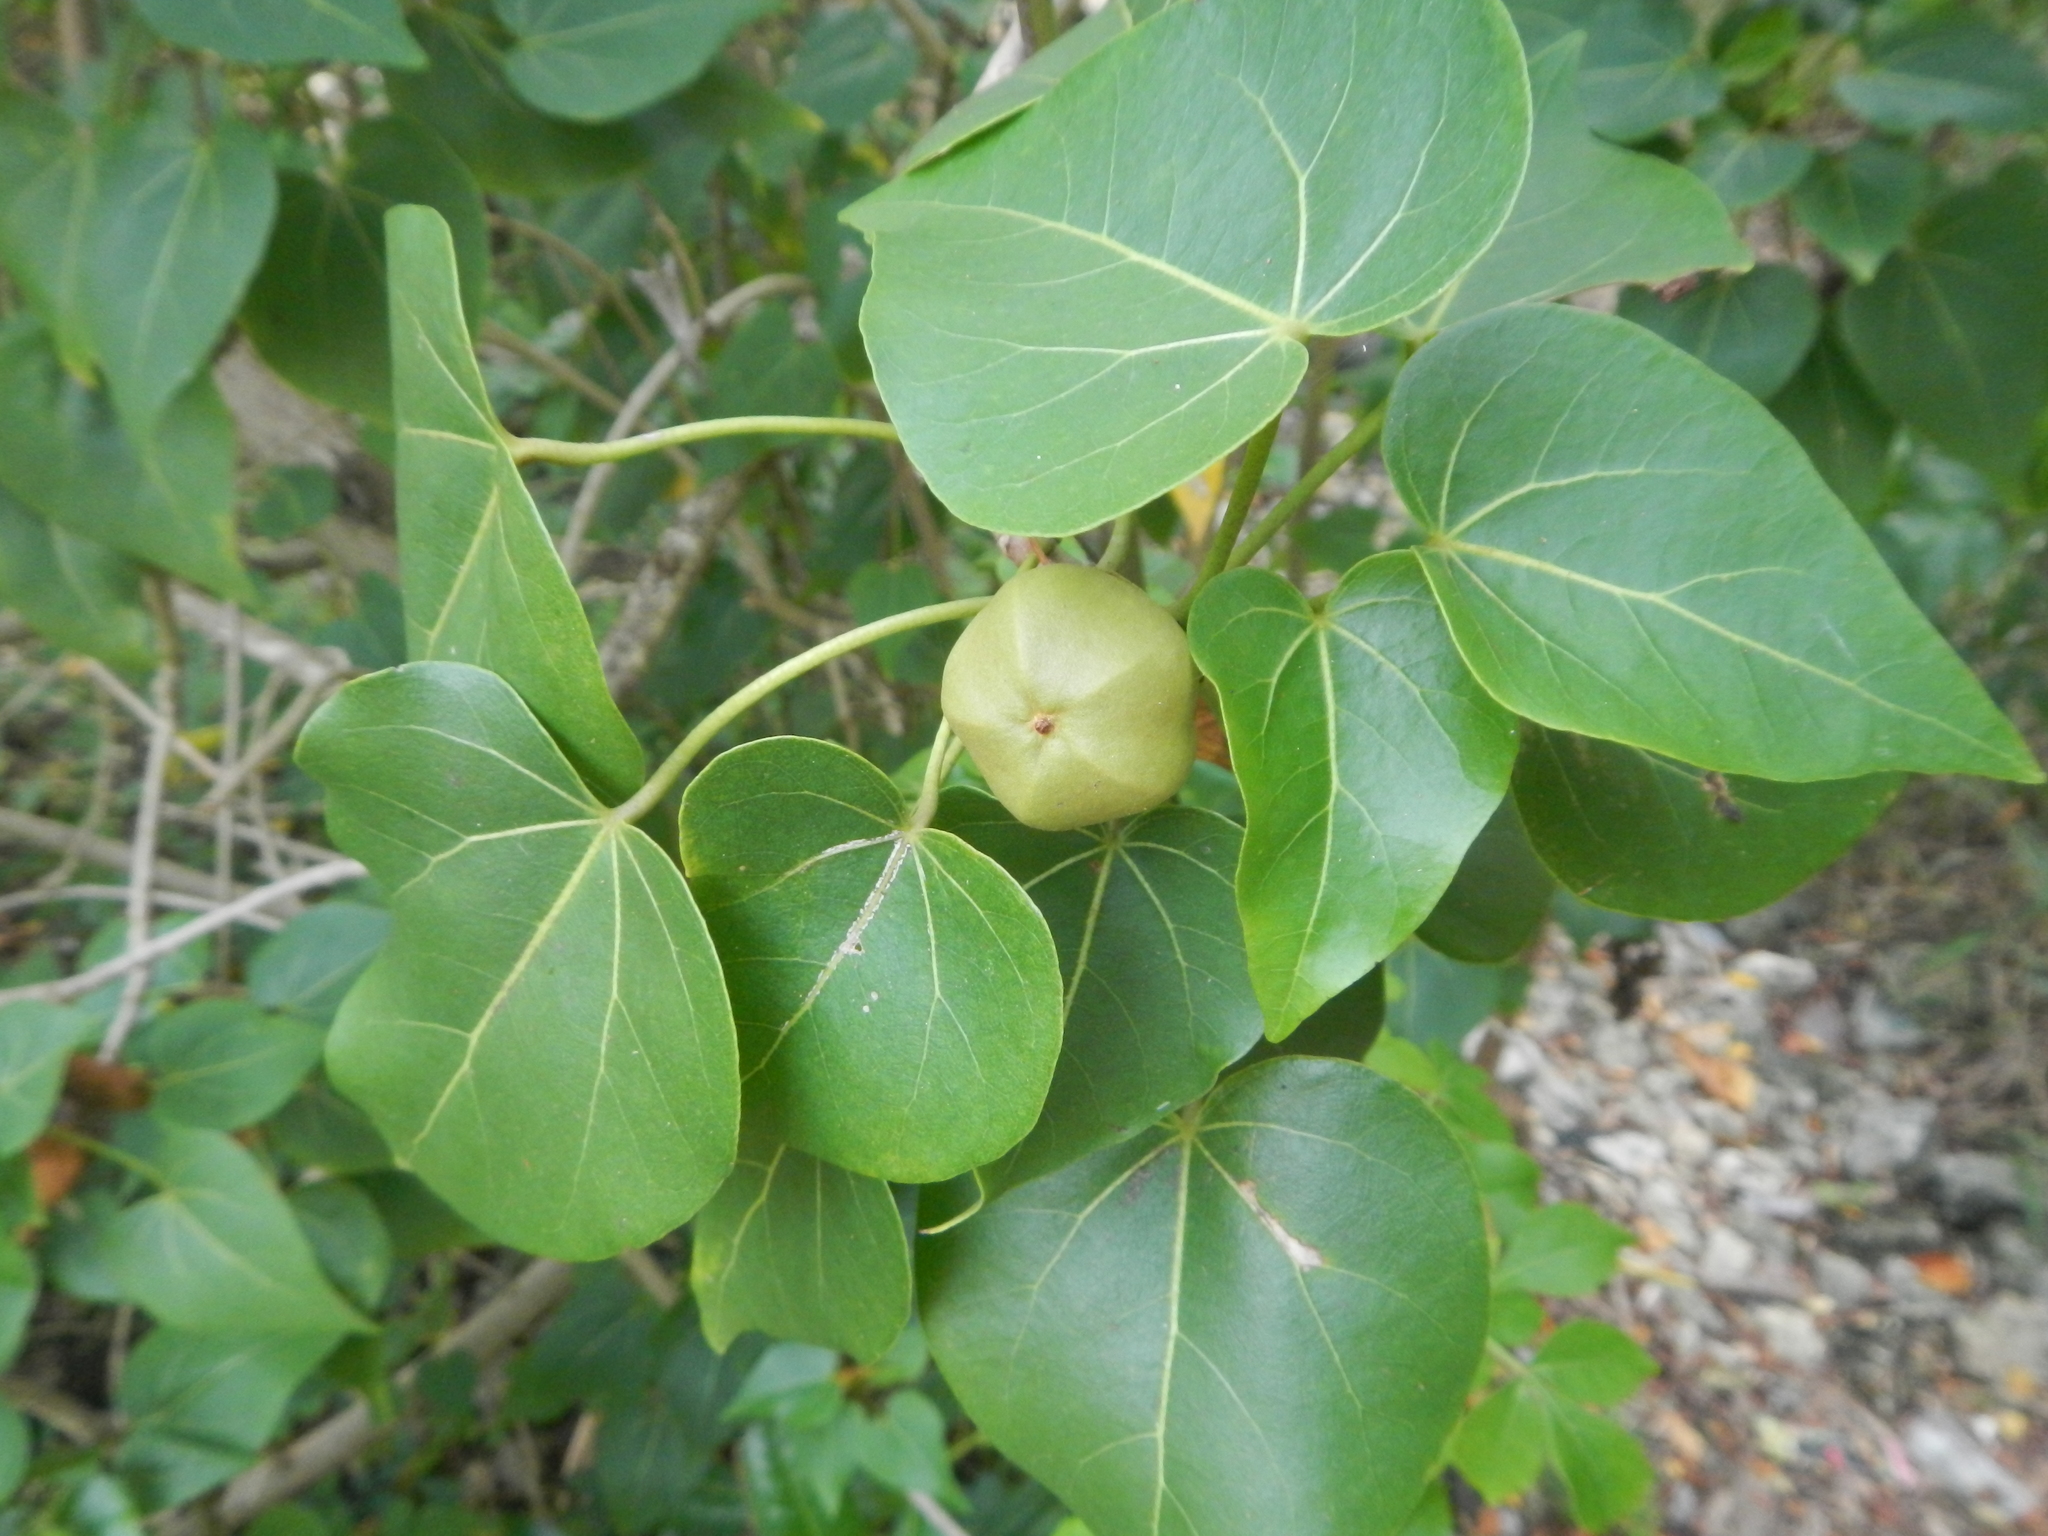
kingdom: Plantae
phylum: Tracheophyta
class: Magnoliopsida
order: Malvales
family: Malvaceae
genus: Thespesia
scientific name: Thespesia populnea
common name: Seaside mahoe
